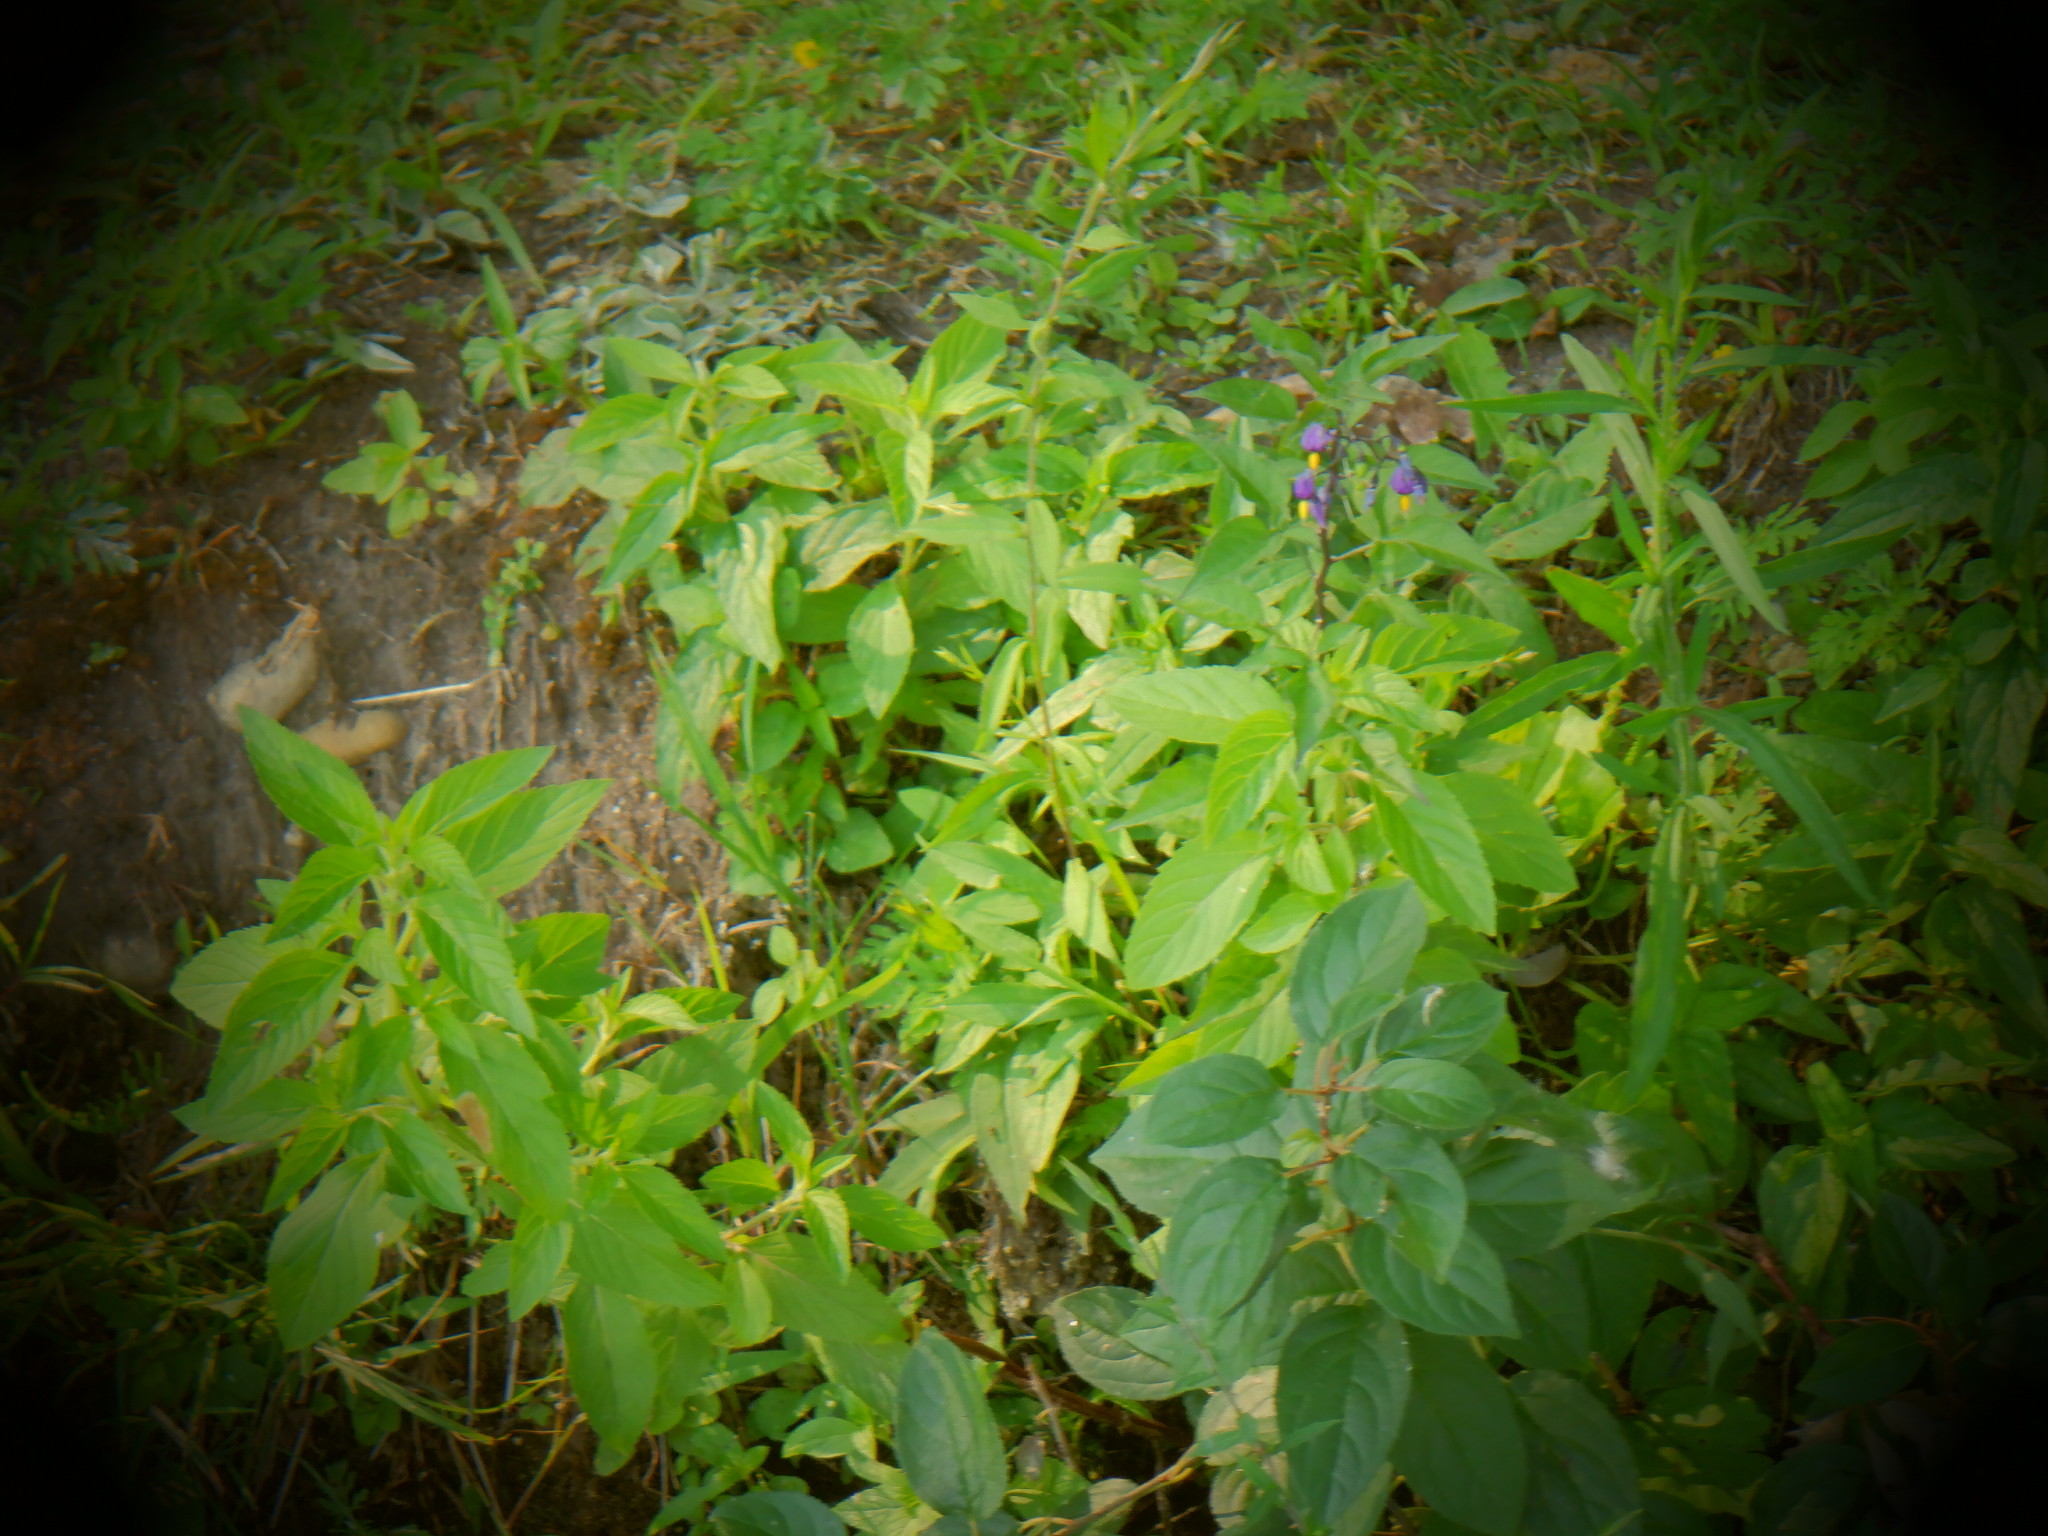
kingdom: Plantae
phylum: Tracheophyta
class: Magnoliopsida
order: Solanales
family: Solanaceae
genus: Solanum
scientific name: Solanum dulcamara
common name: Climbing nightshade
